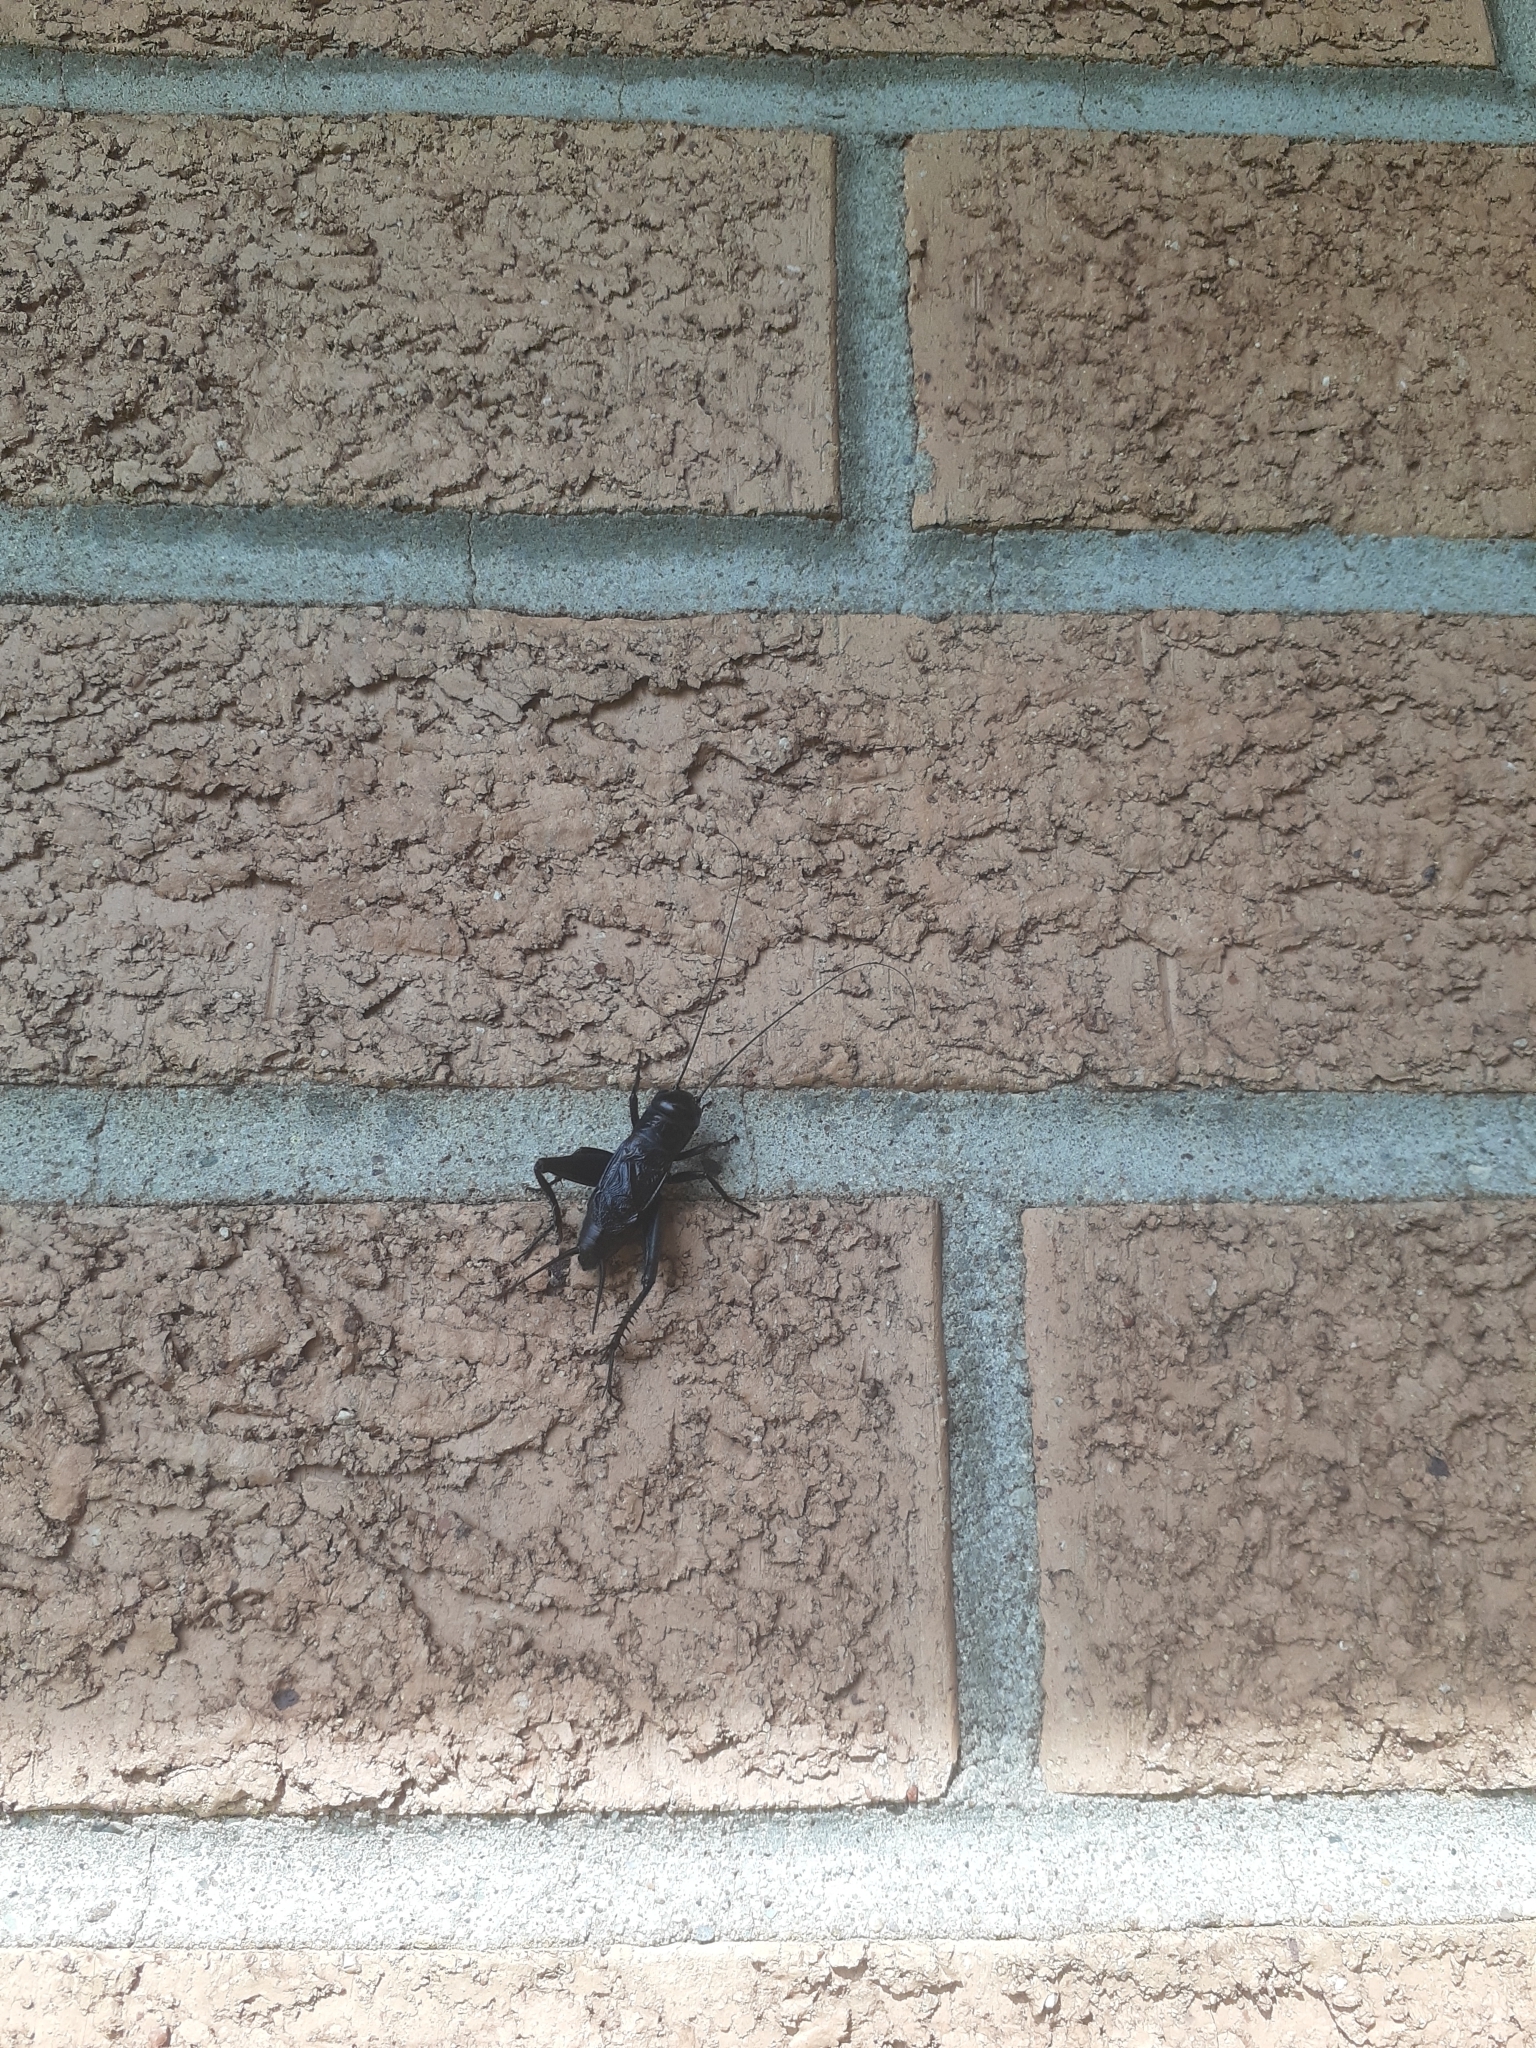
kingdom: Animalia
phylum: Arthropoda
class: Insecta
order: Orthoptera
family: Gryllidae
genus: Gryllus
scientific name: Gryllus pennsylvanicus
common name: Fall field cricket
